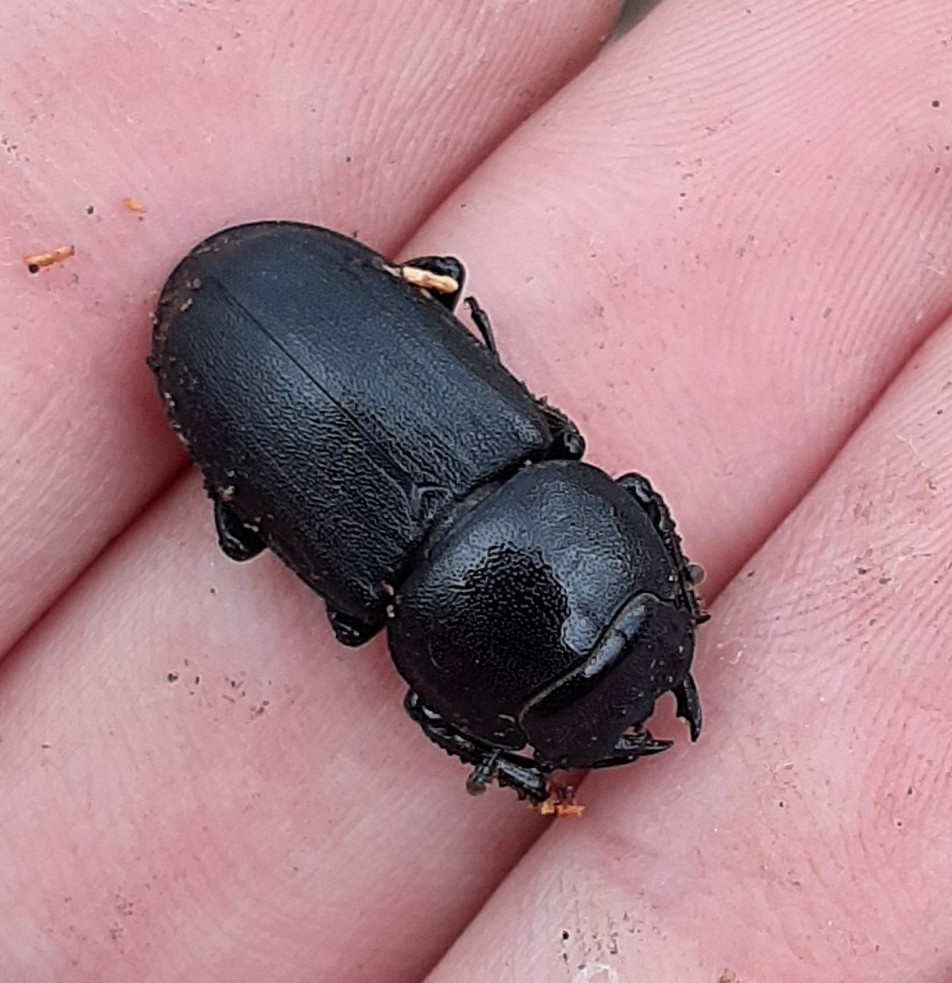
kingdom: Animalia
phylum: Arthropoda
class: Insecta
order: Coleoptera
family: Lucanidae
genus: Dorcus
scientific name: Dorcus parallelipipedus
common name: Lesser stag beetle
